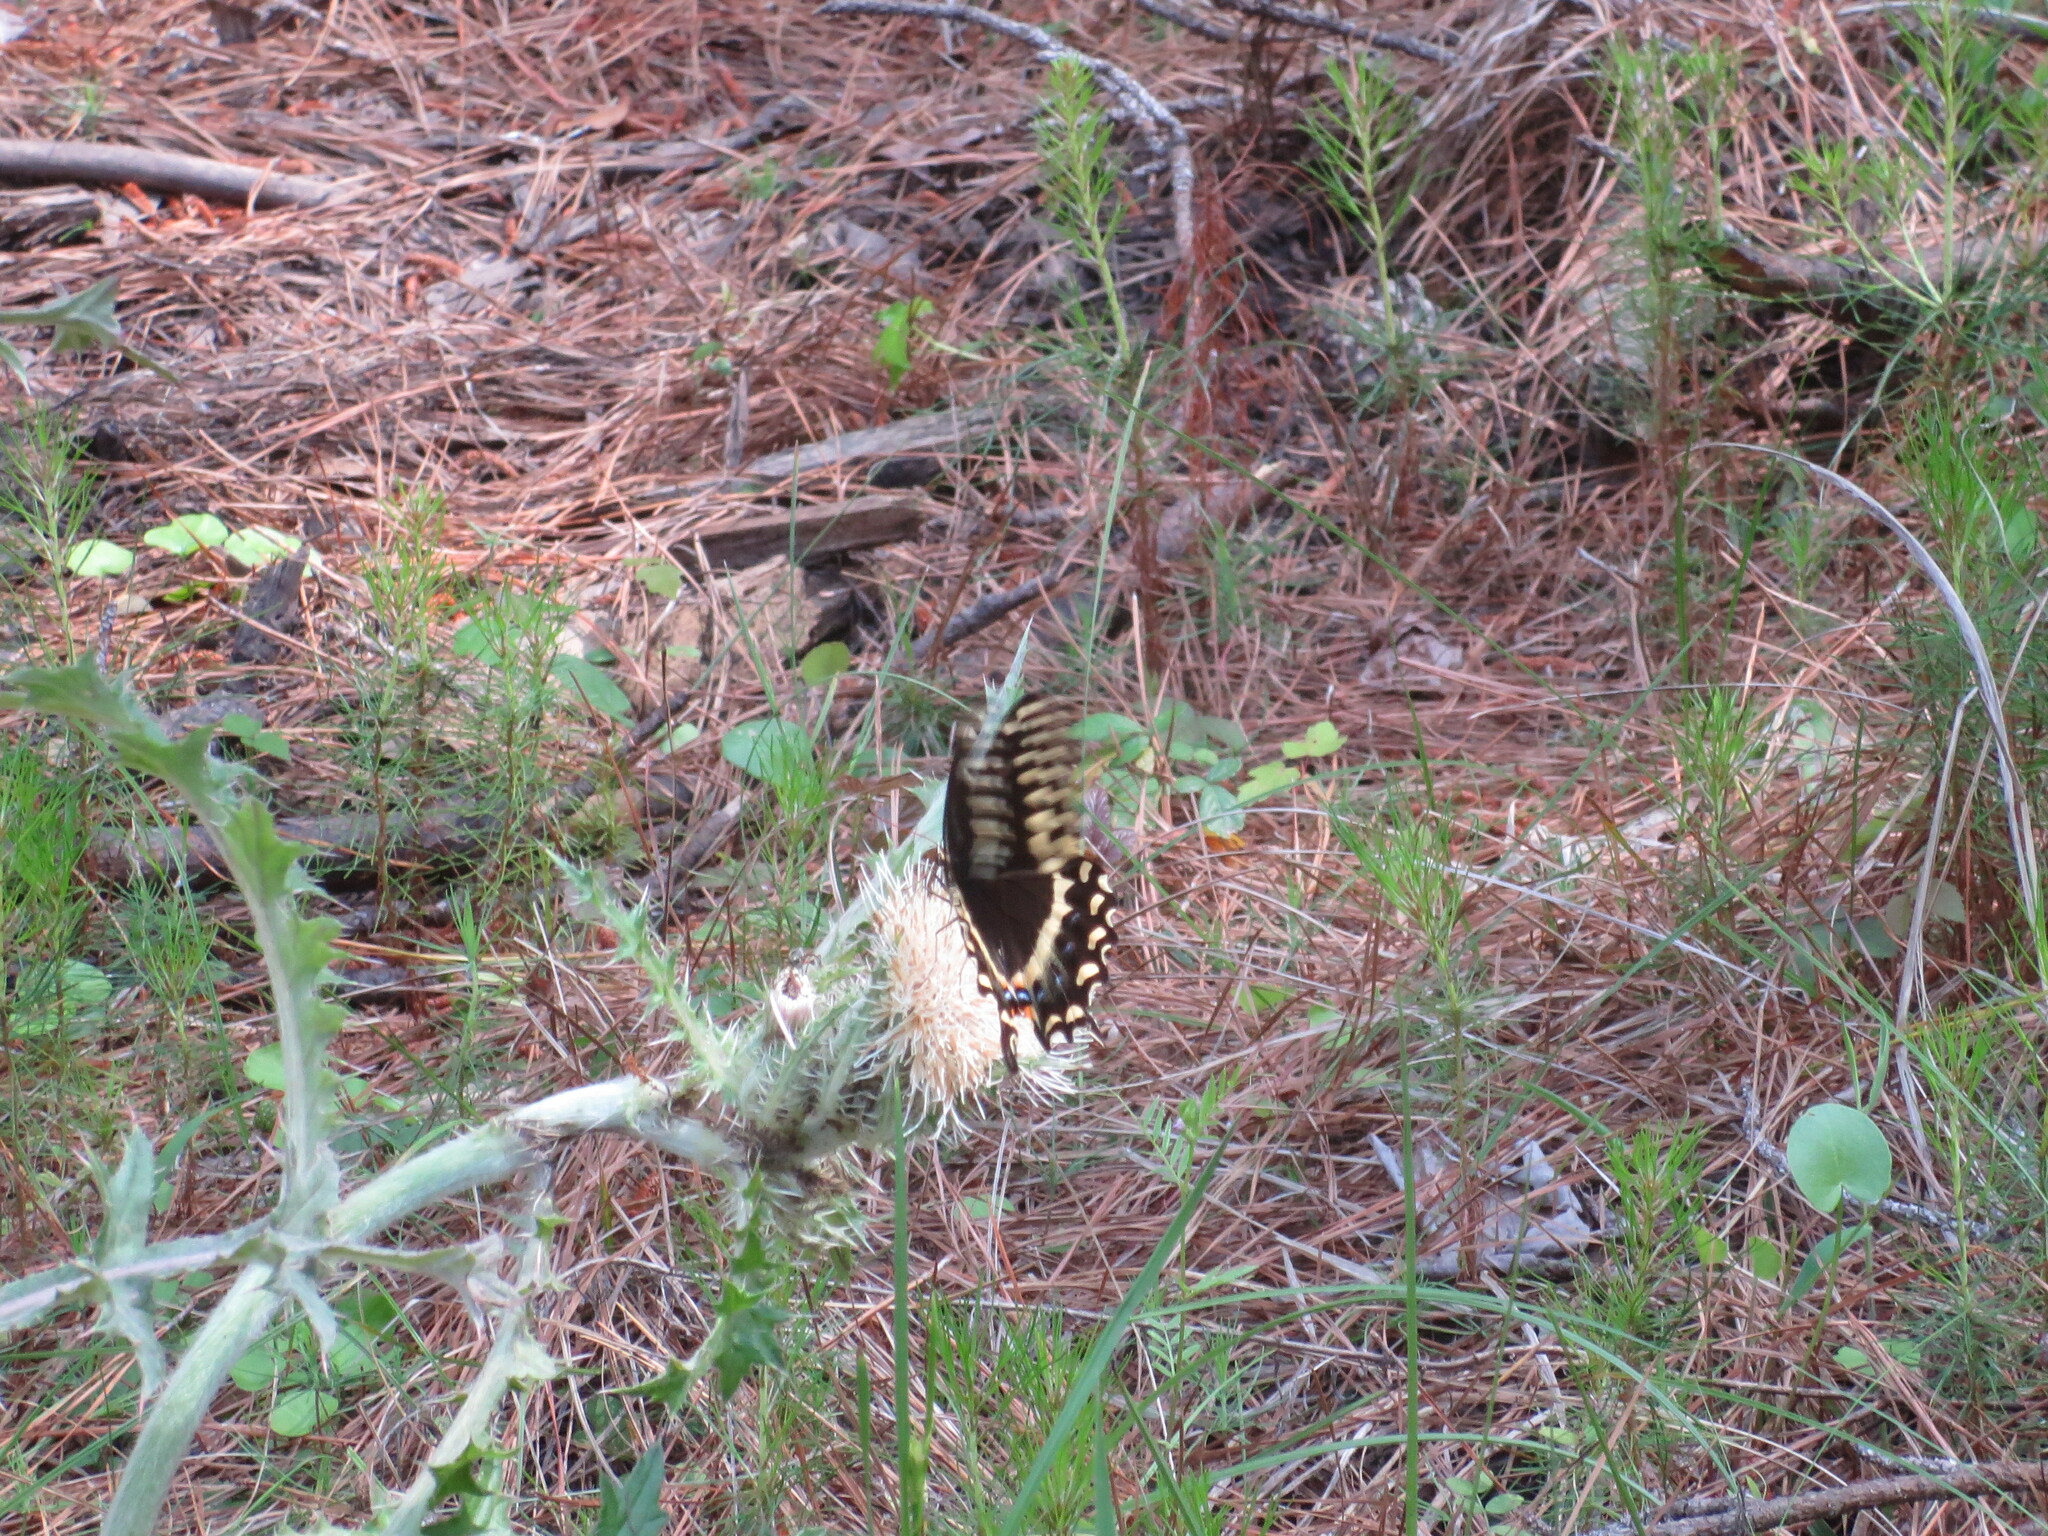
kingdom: Animalia
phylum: Arthropoda
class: Insecta
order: Lepidoptera
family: Papilionidae
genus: Papilio
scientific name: Papilio palamedes
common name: Palamedes swallowtail
